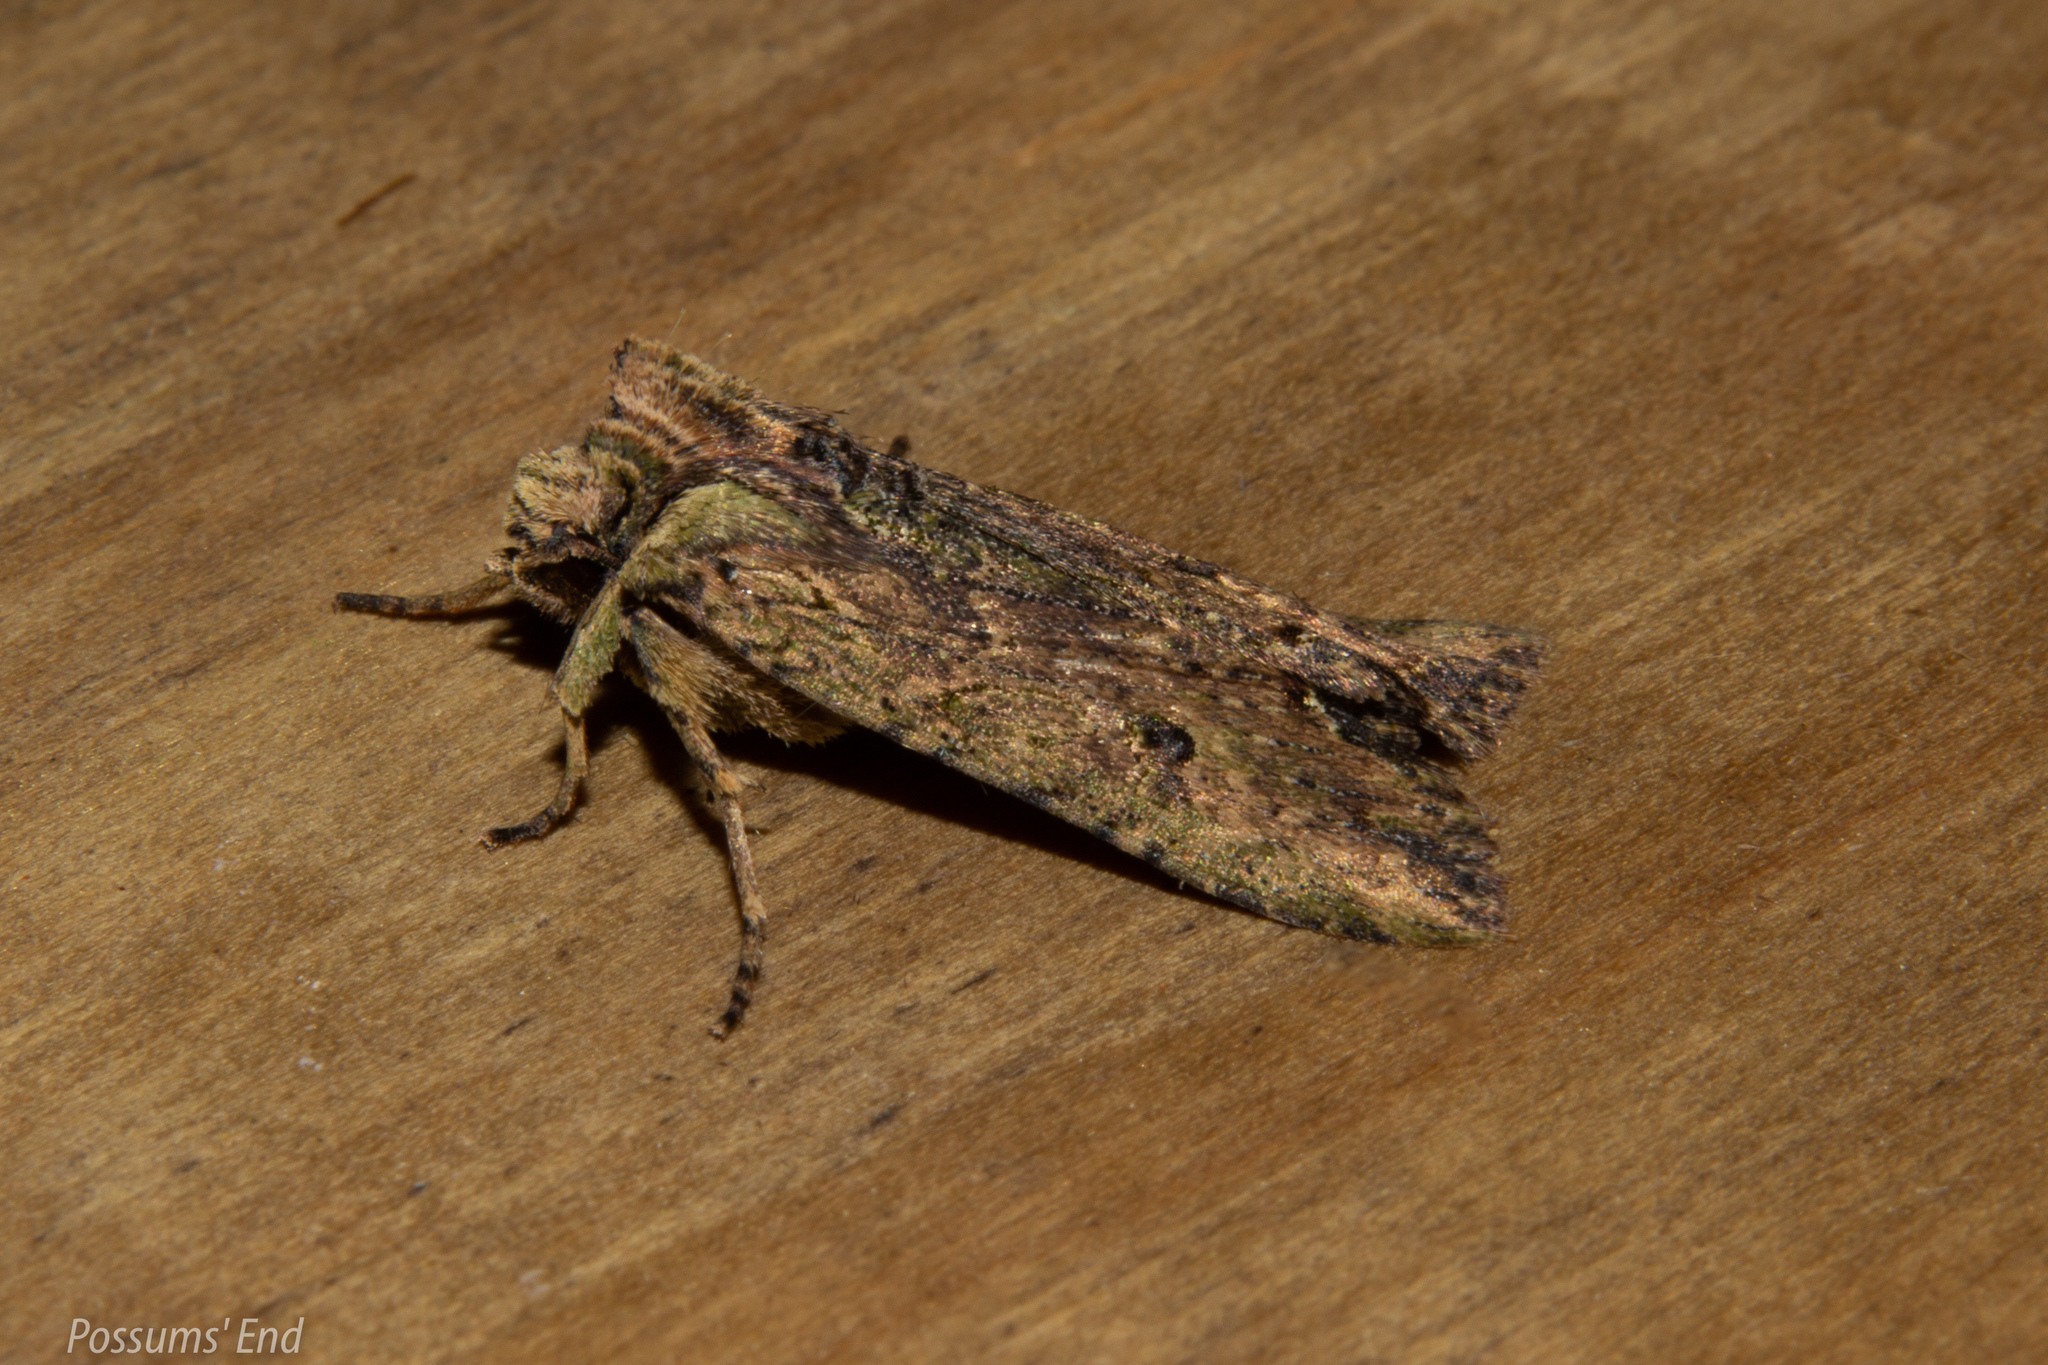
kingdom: Animalia
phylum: Arthropoda
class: Insecta
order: Lepidoptera
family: Noctuidae
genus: Meterana
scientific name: Meterana coeleno
